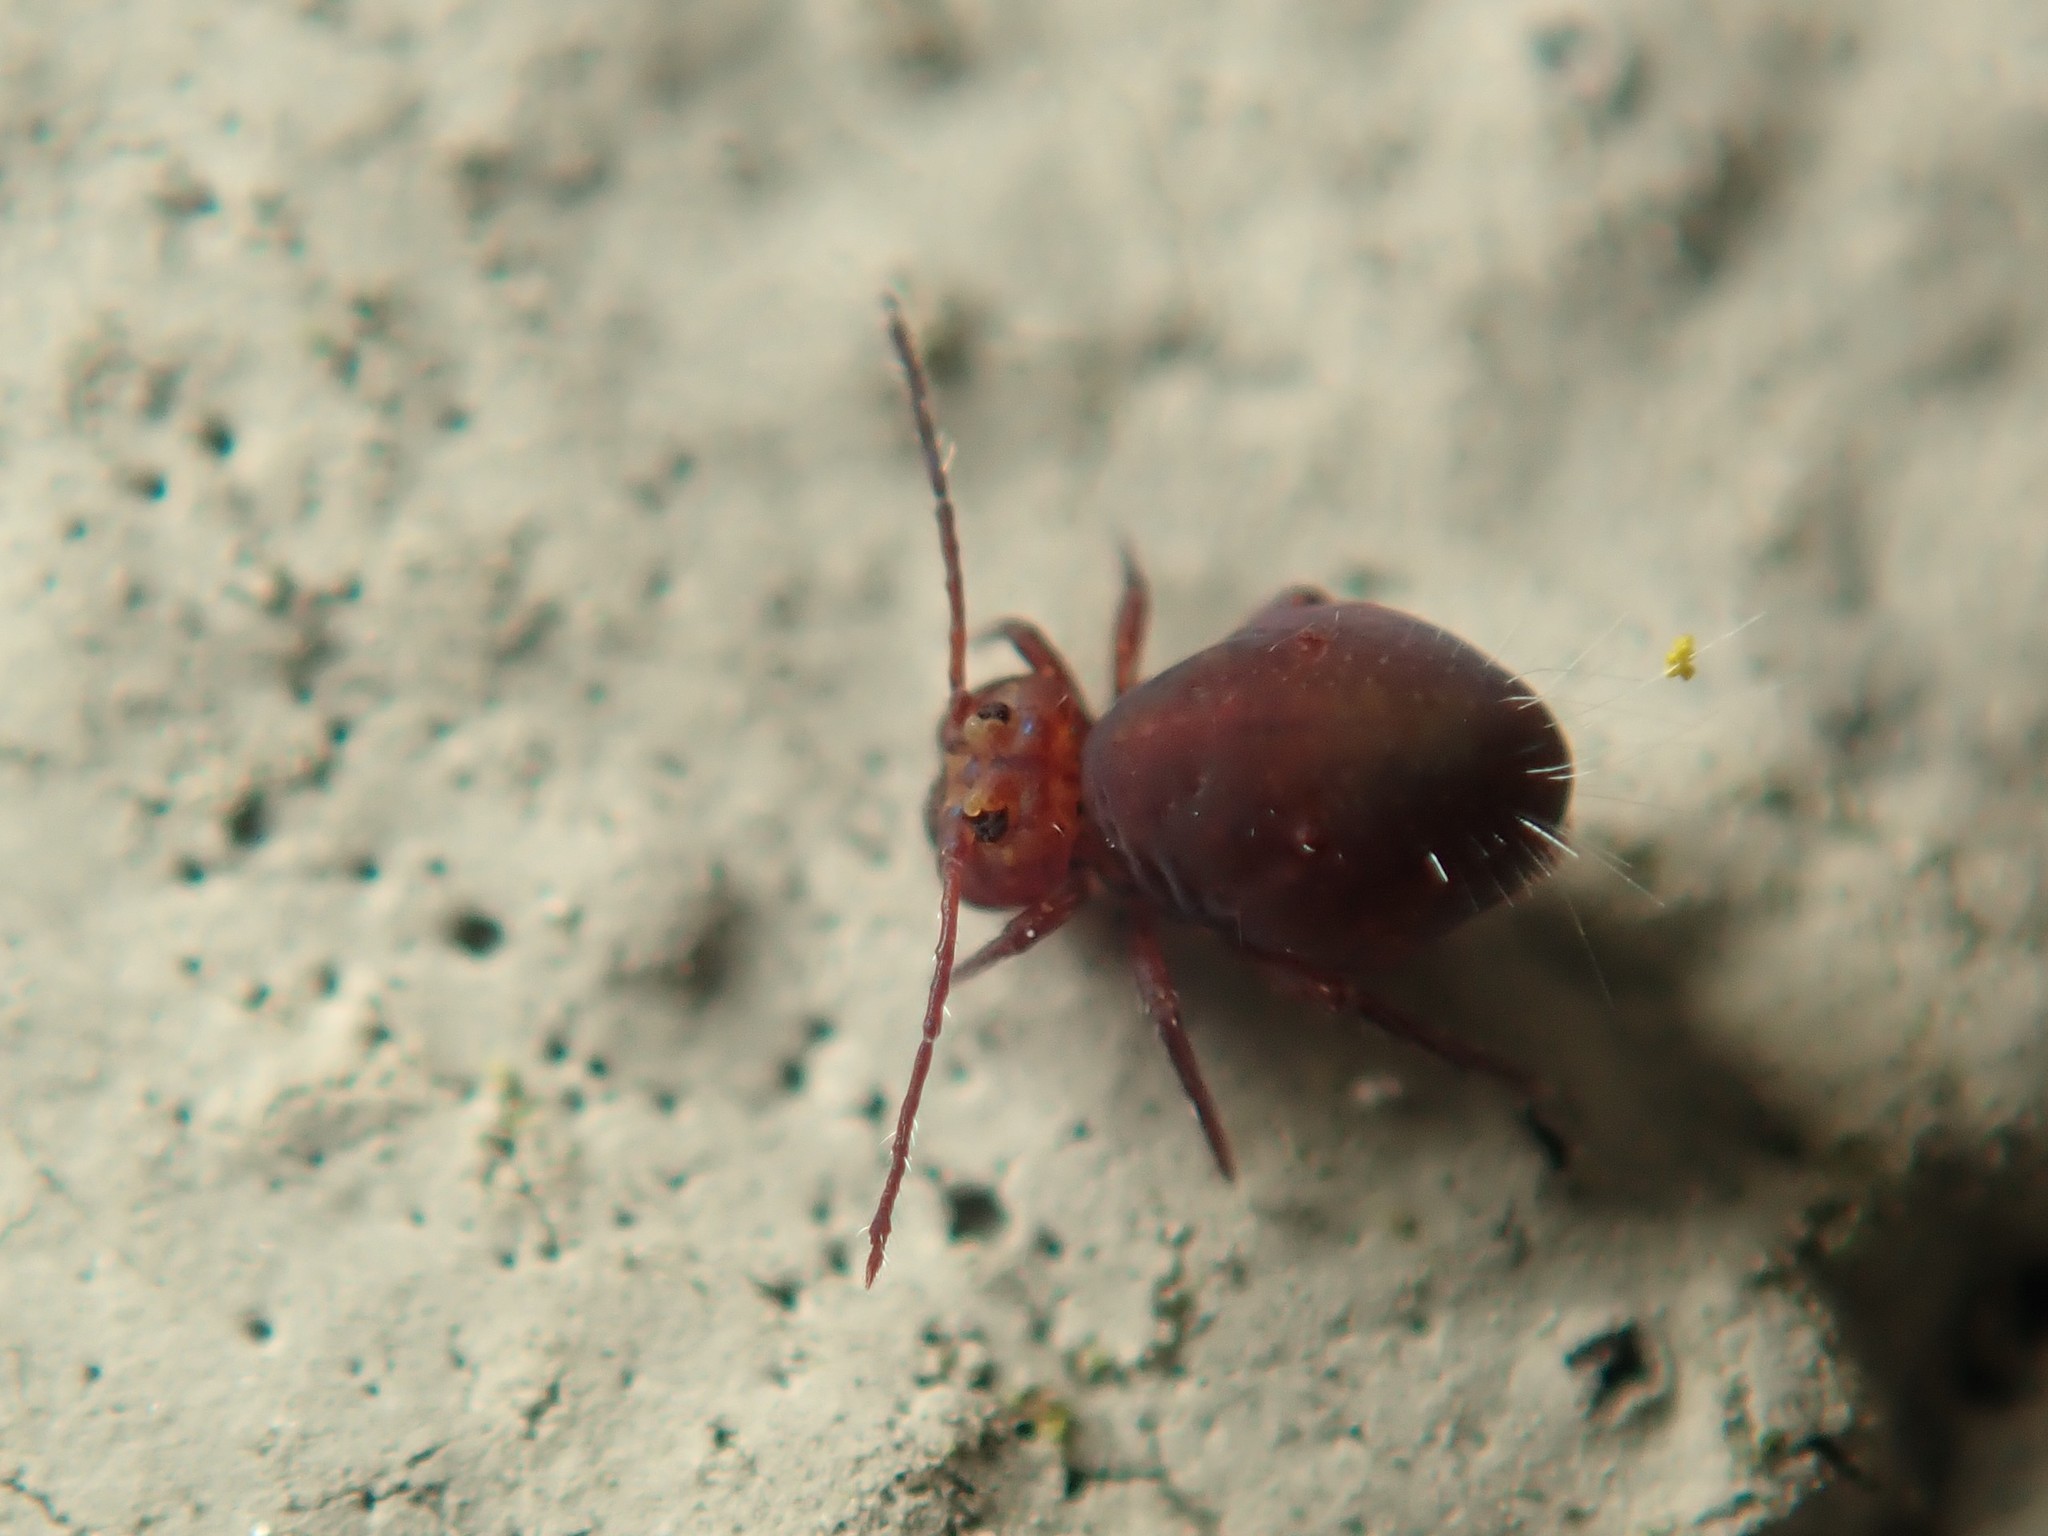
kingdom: Animalia
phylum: Arthropoda
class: Collembola
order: Symphypleona
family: Dicyrtomidae
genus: Dicyrtoma
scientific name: Dicyrtoma fusca
